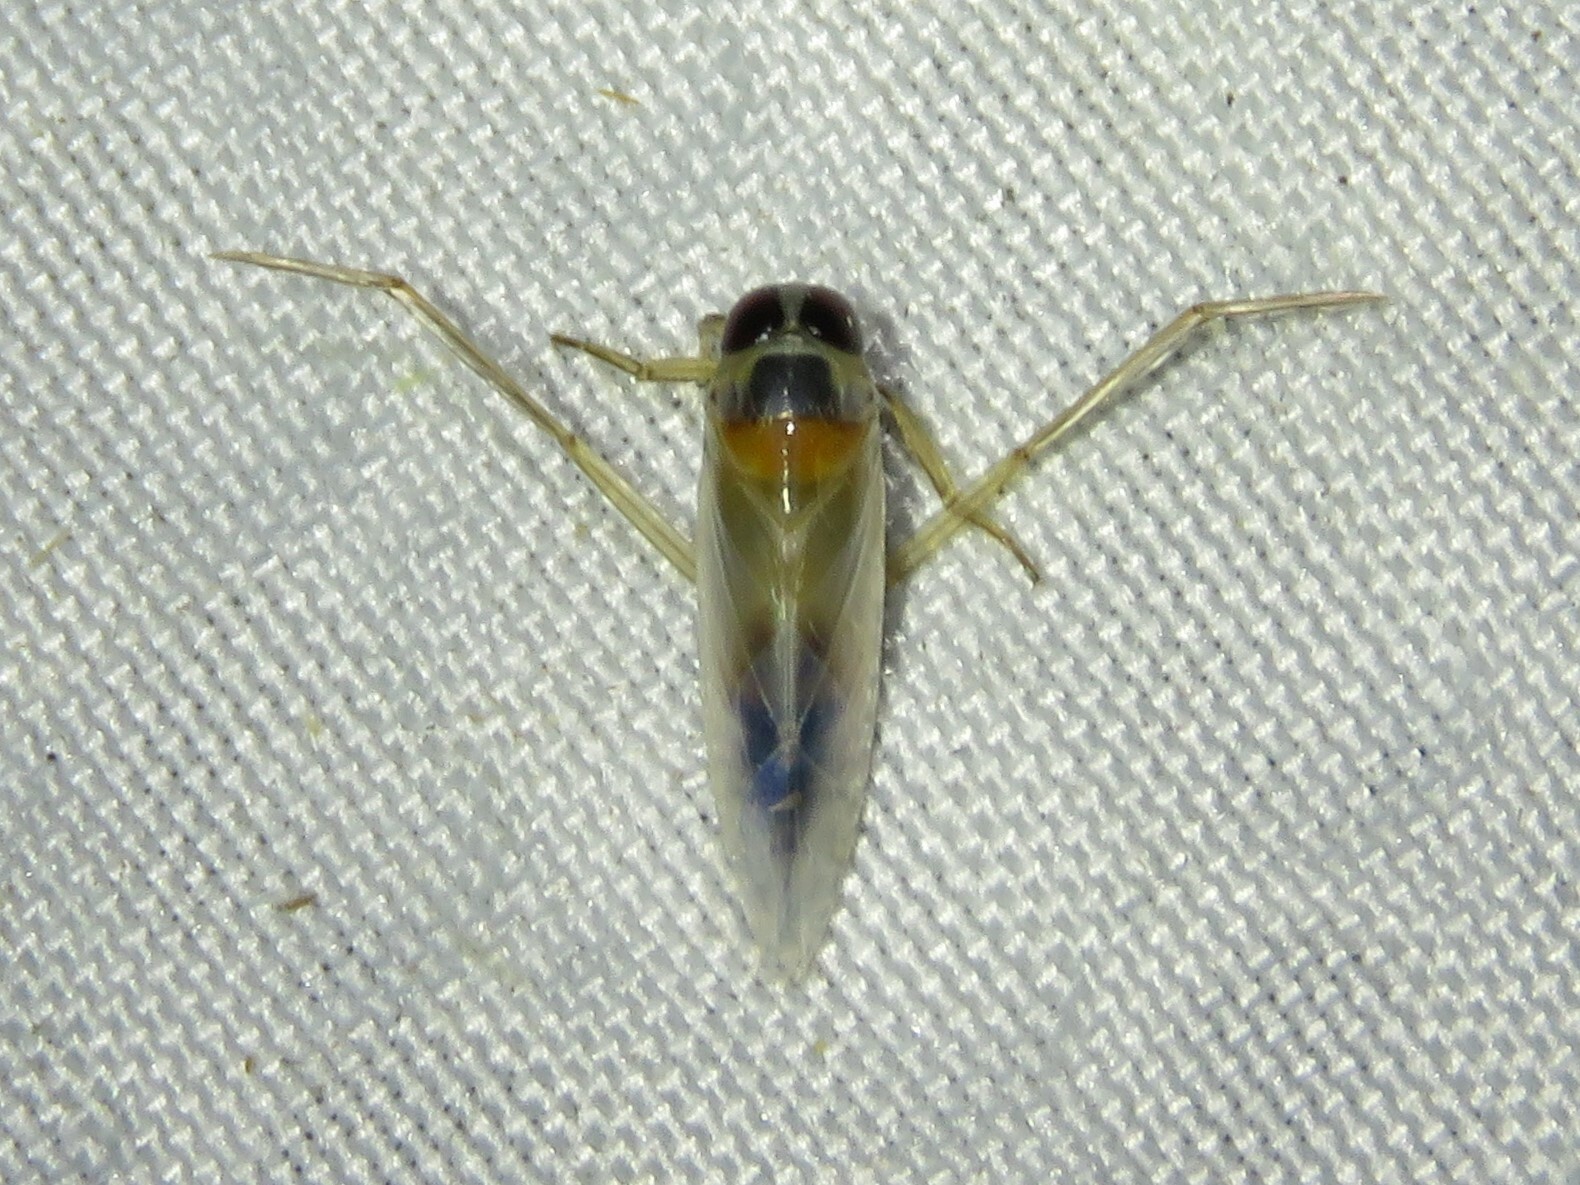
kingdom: Animalia
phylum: Arthropoda
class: Insecta
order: Hemiptera
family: Notonectidae
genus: Buenoa
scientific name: Buenoa
